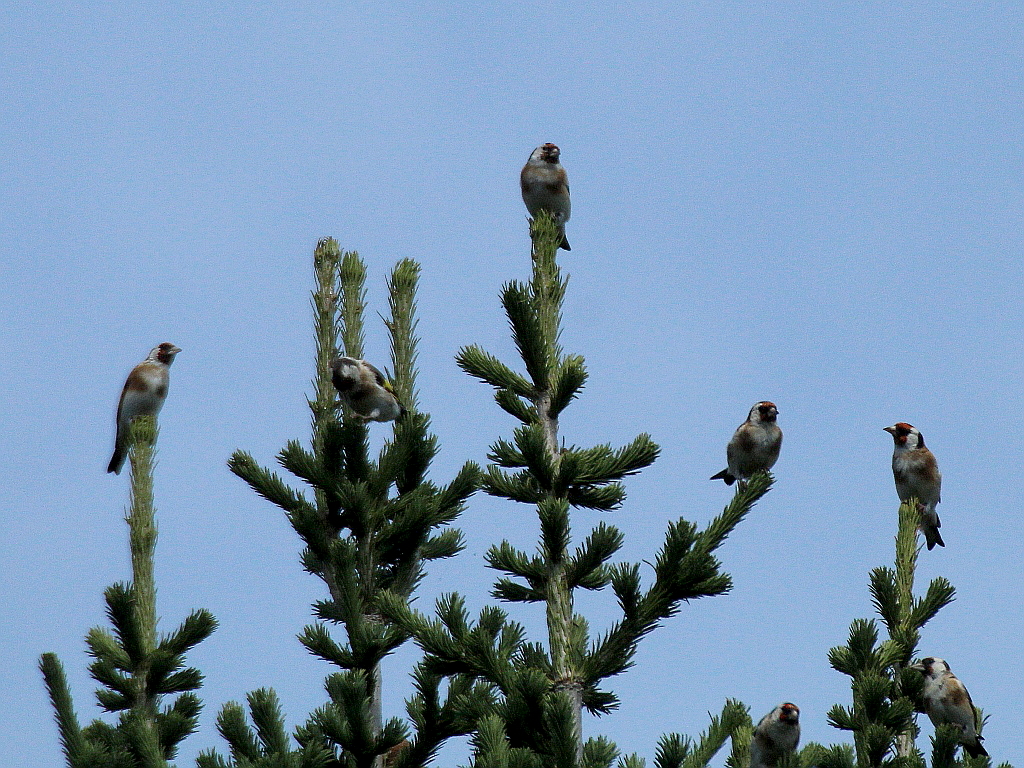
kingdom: Animalia
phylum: Chordata
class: Aves
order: Passeriformes
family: Fringillidae
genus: Carduelis
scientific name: Carduelis carduelis
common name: European goldfinch
